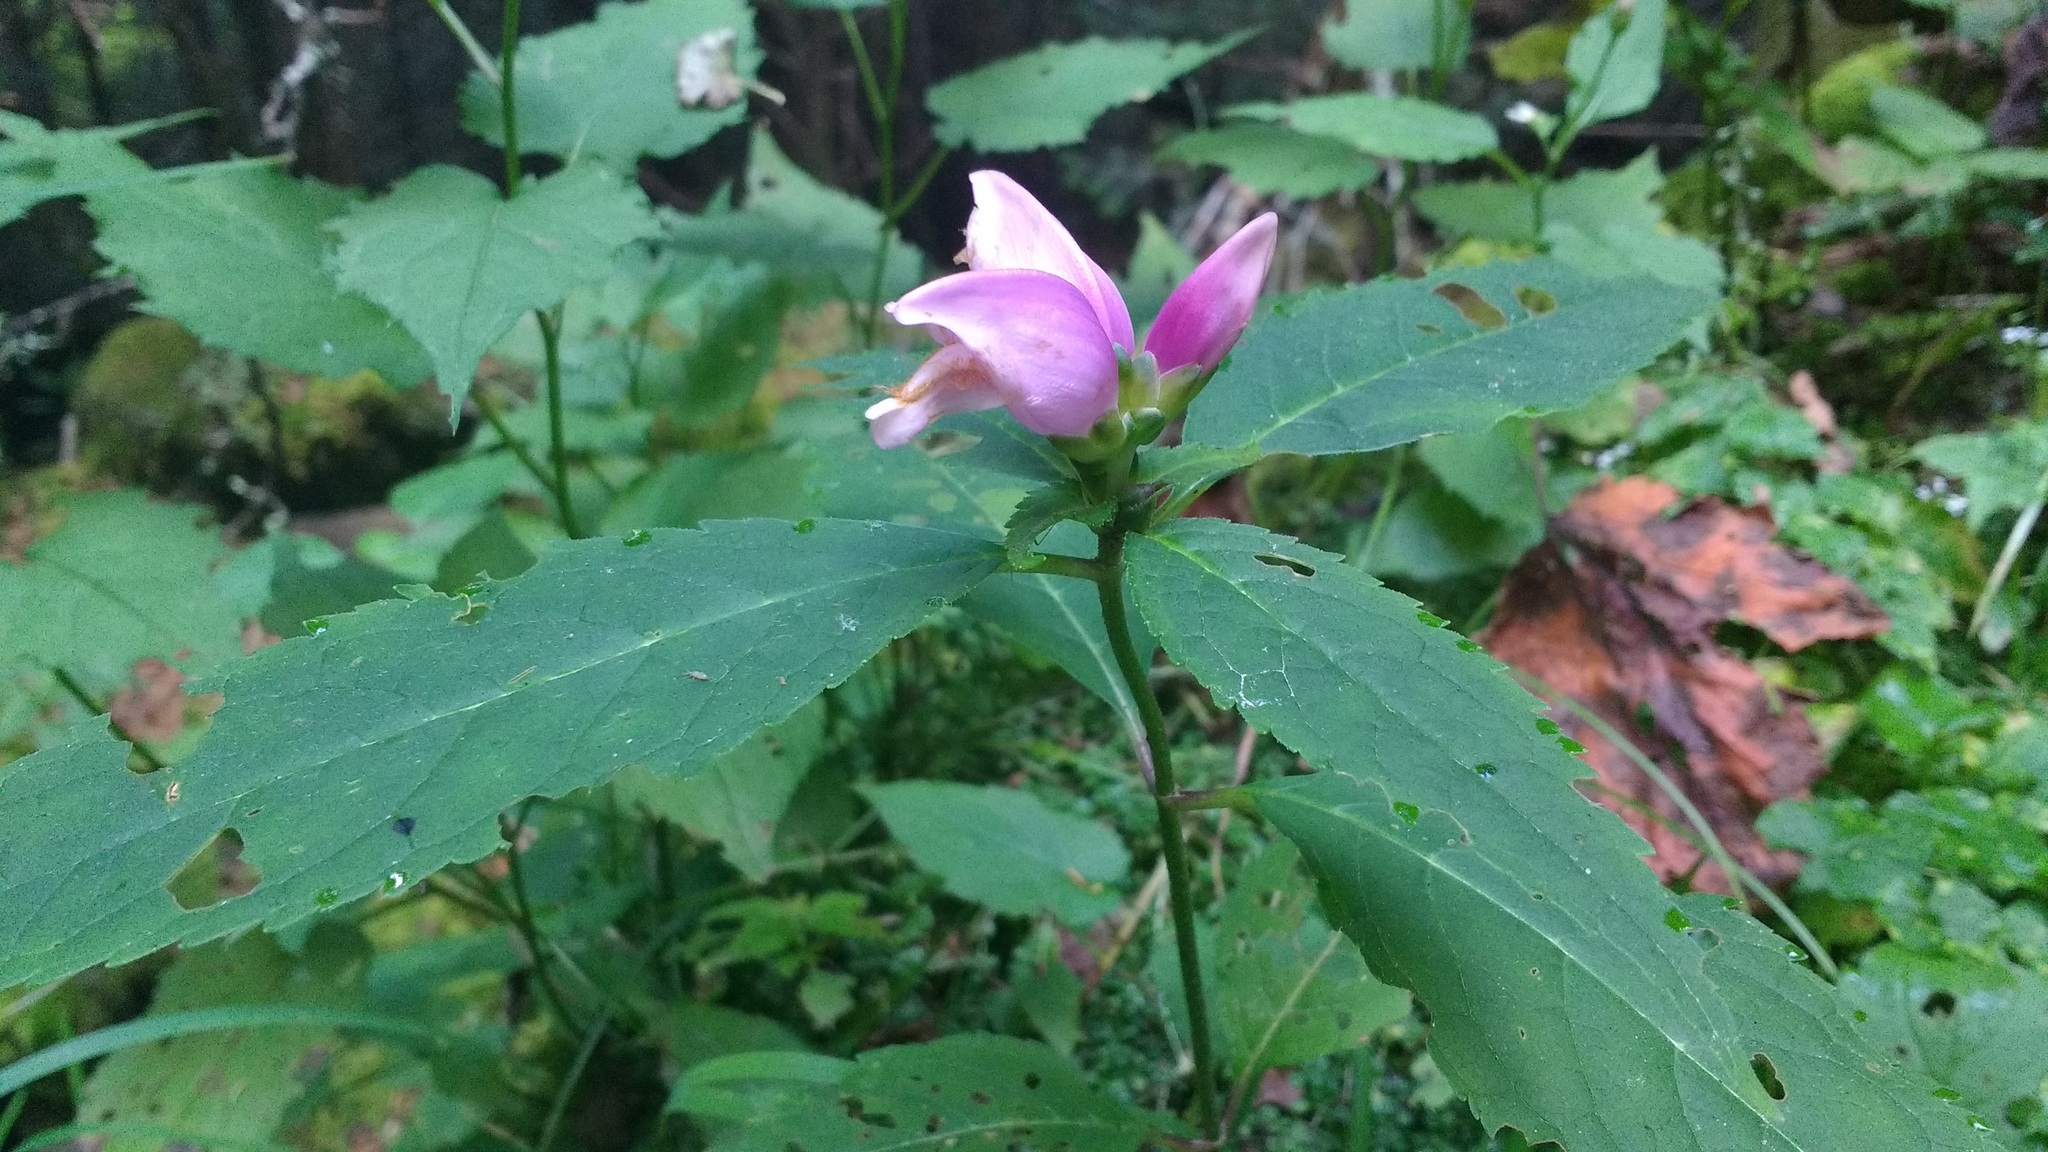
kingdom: Plantae
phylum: Tracheophyta
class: Magnoliopsida
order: Lamiales
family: Plantaginaceae
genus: Chelone
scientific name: Chelone lyonii
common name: Pink turtlehead
